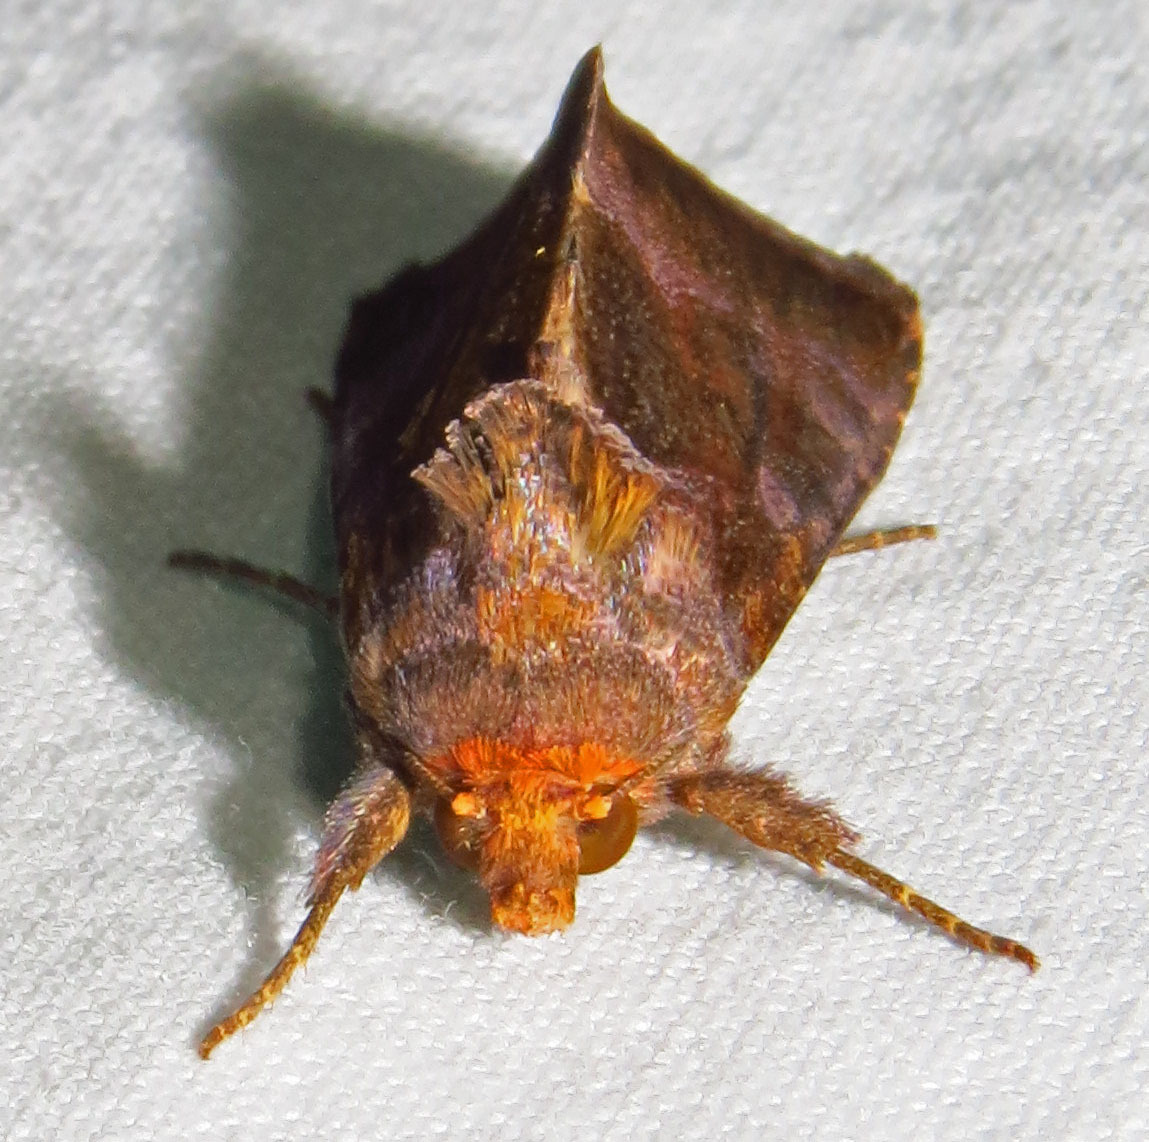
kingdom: Animalia
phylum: Arthropoda
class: Insecta
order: Lepidoptera
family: Noctuidae
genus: Argyrogramma
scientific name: Argyrogramma verruca
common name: Golden looper moth
